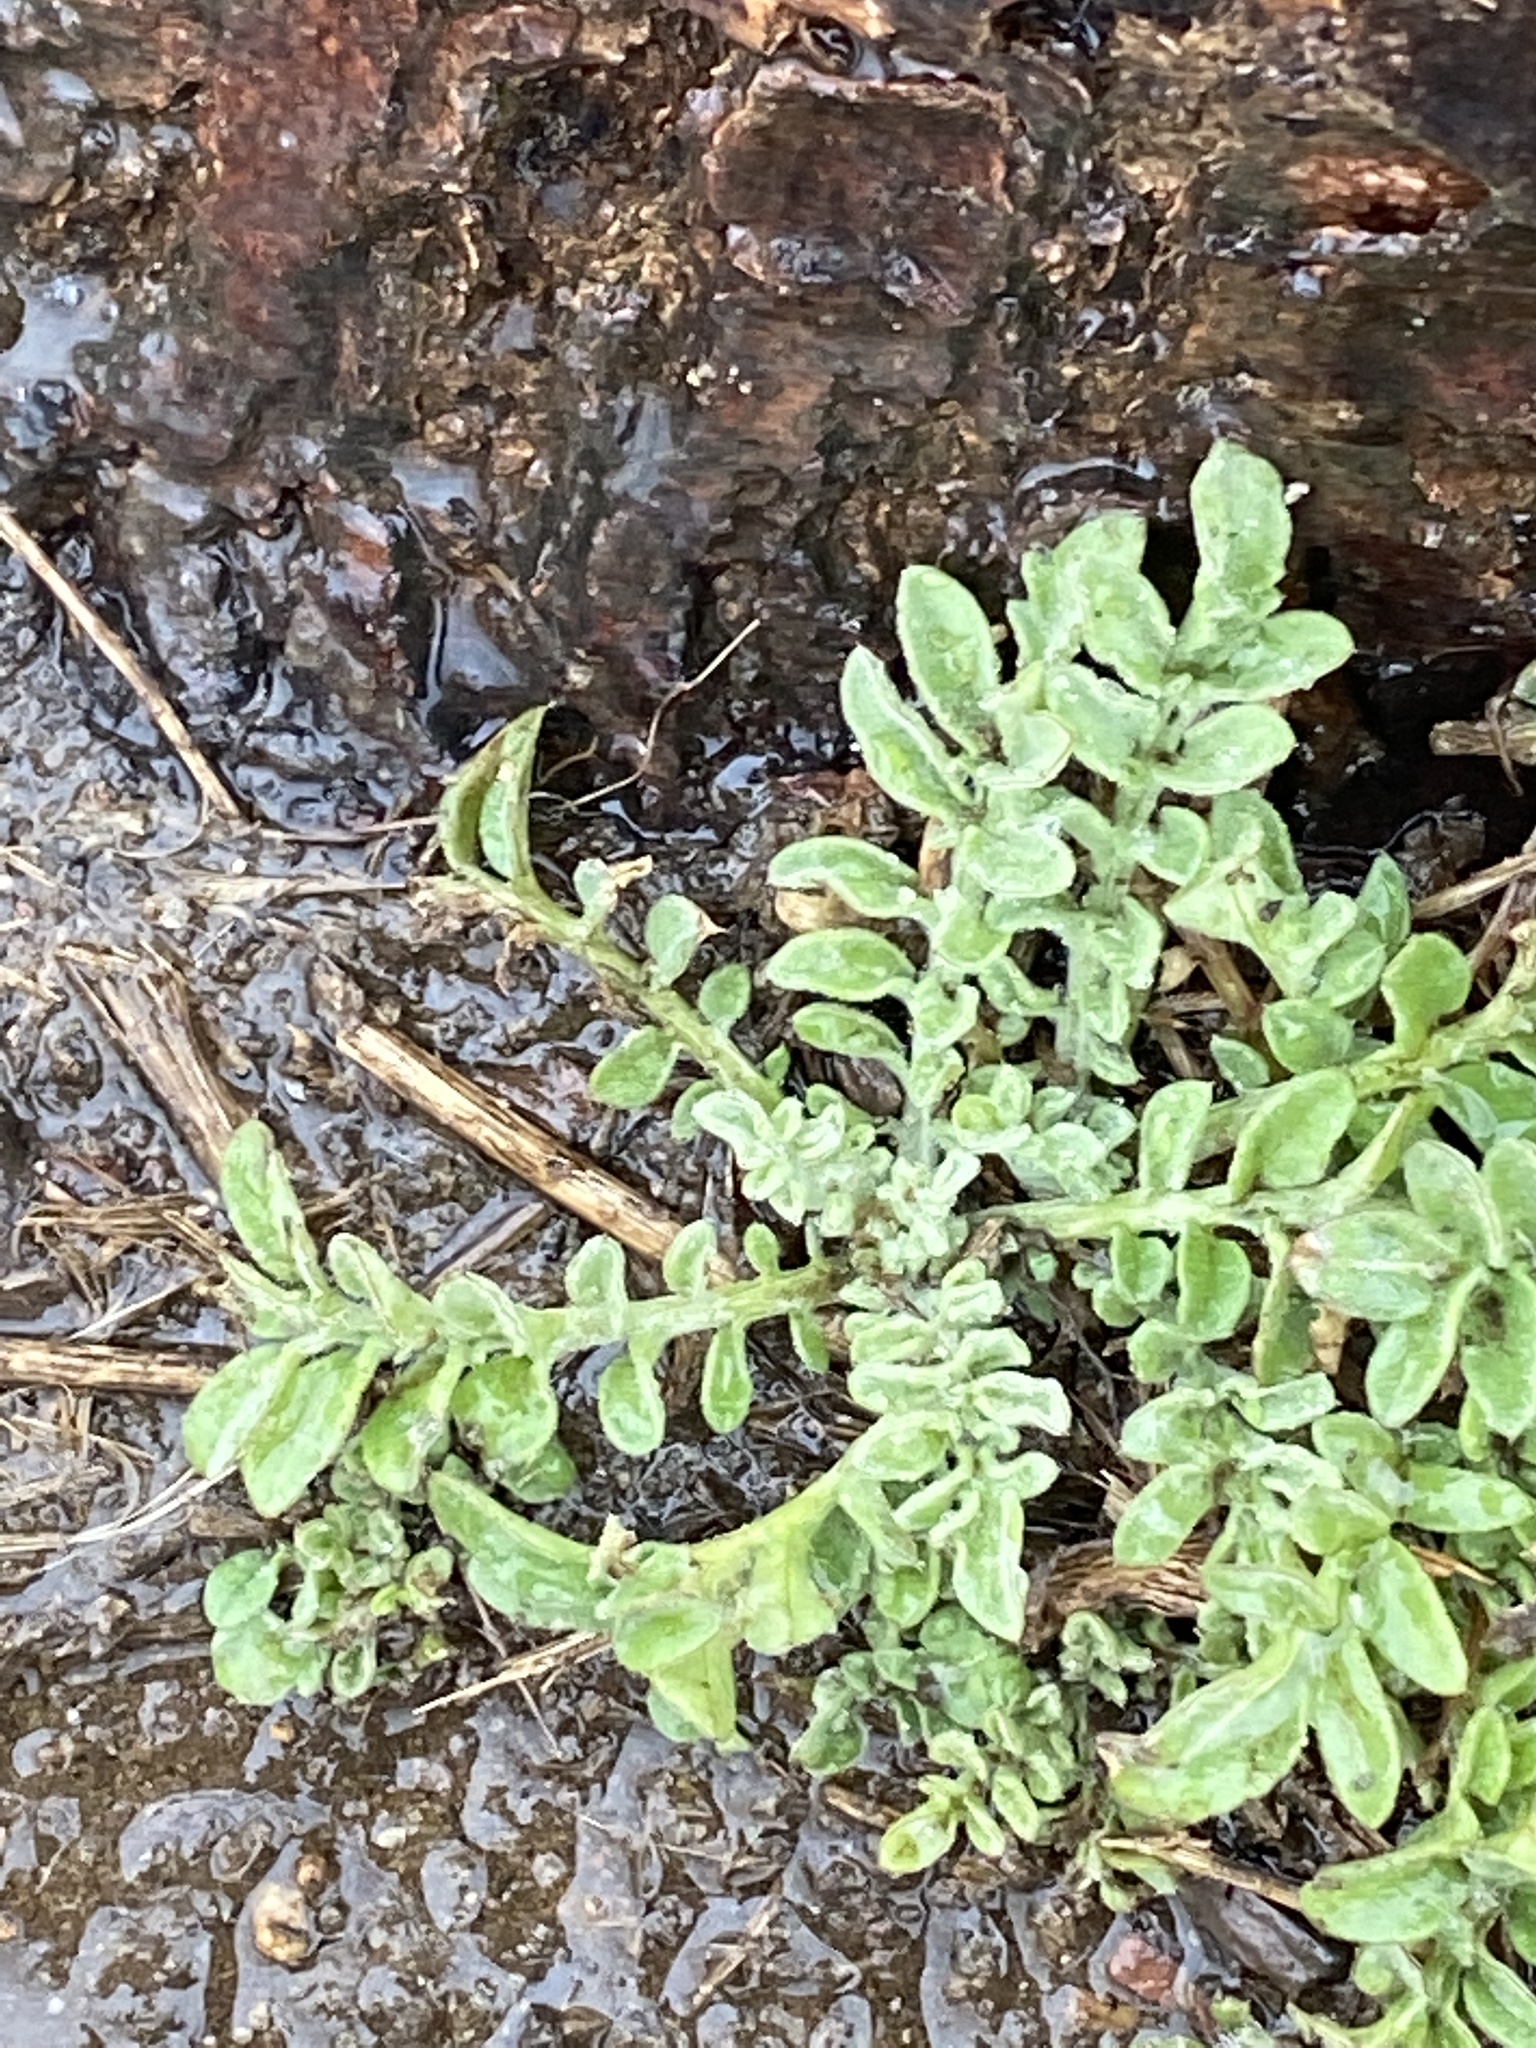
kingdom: Plantae
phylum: Tracheophyta
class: Magnoliopsida
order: Asterales
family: Asteraceae
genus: Centaurea
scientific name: Centaurea stoebe
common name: Spotted knapweed
